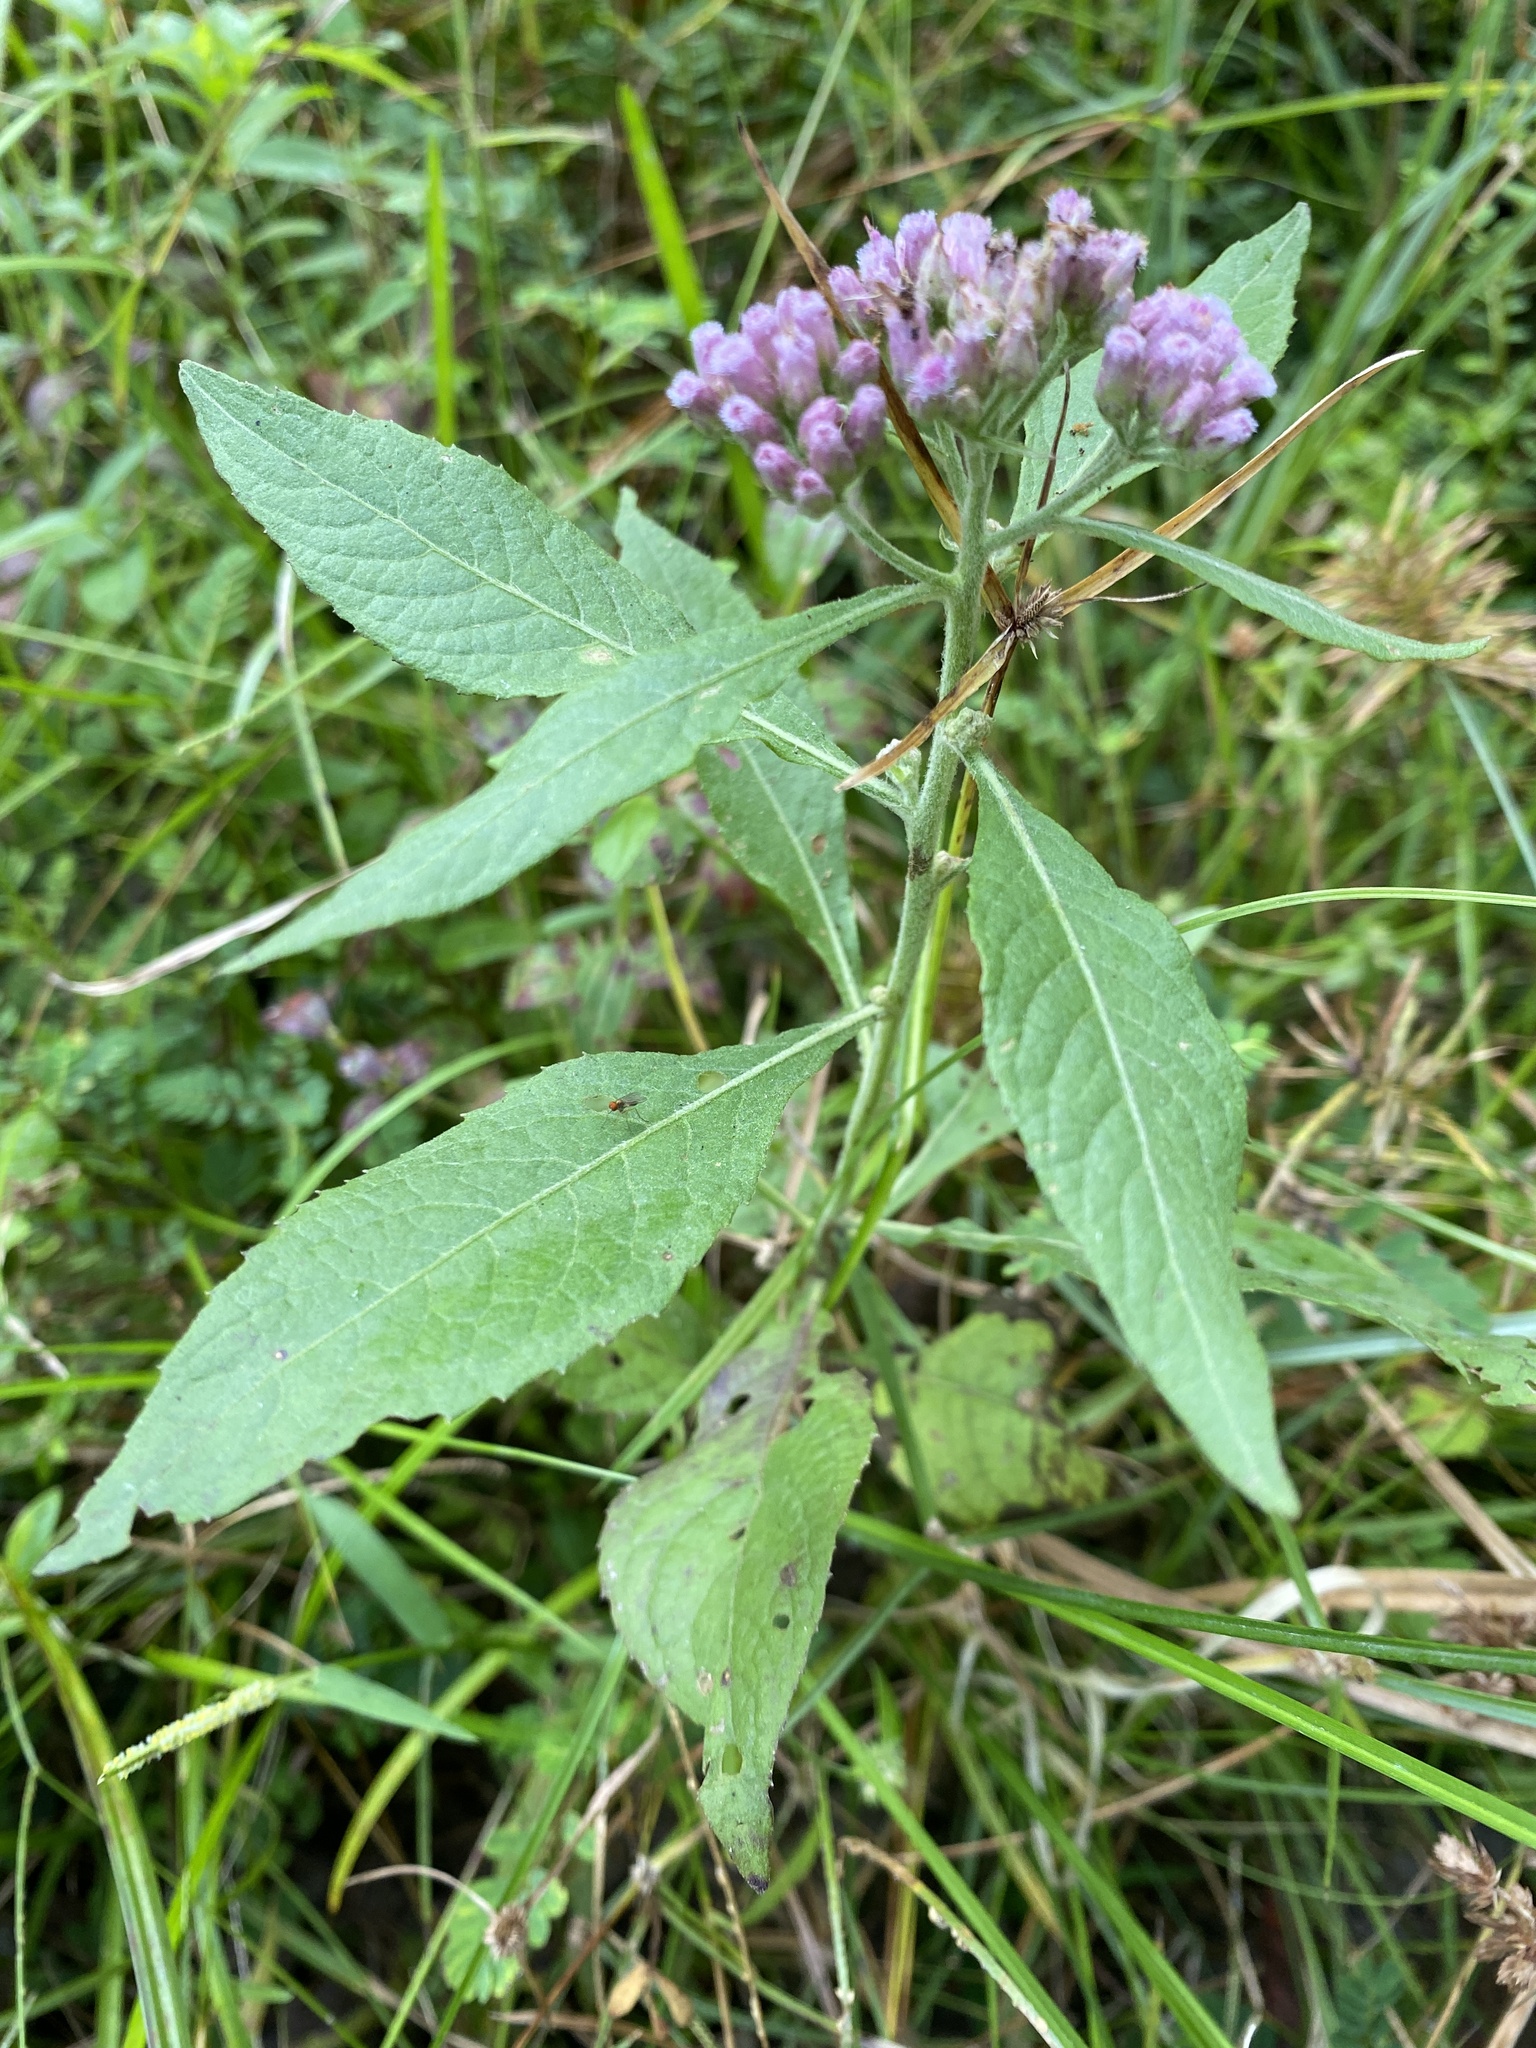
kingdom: Plantae
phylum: Tracheophyta
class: Magnoliopsida
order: Asterales
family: Asteraceae
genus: Pluchea
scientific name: Pluchea camphorata
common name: Camphor pluchea
